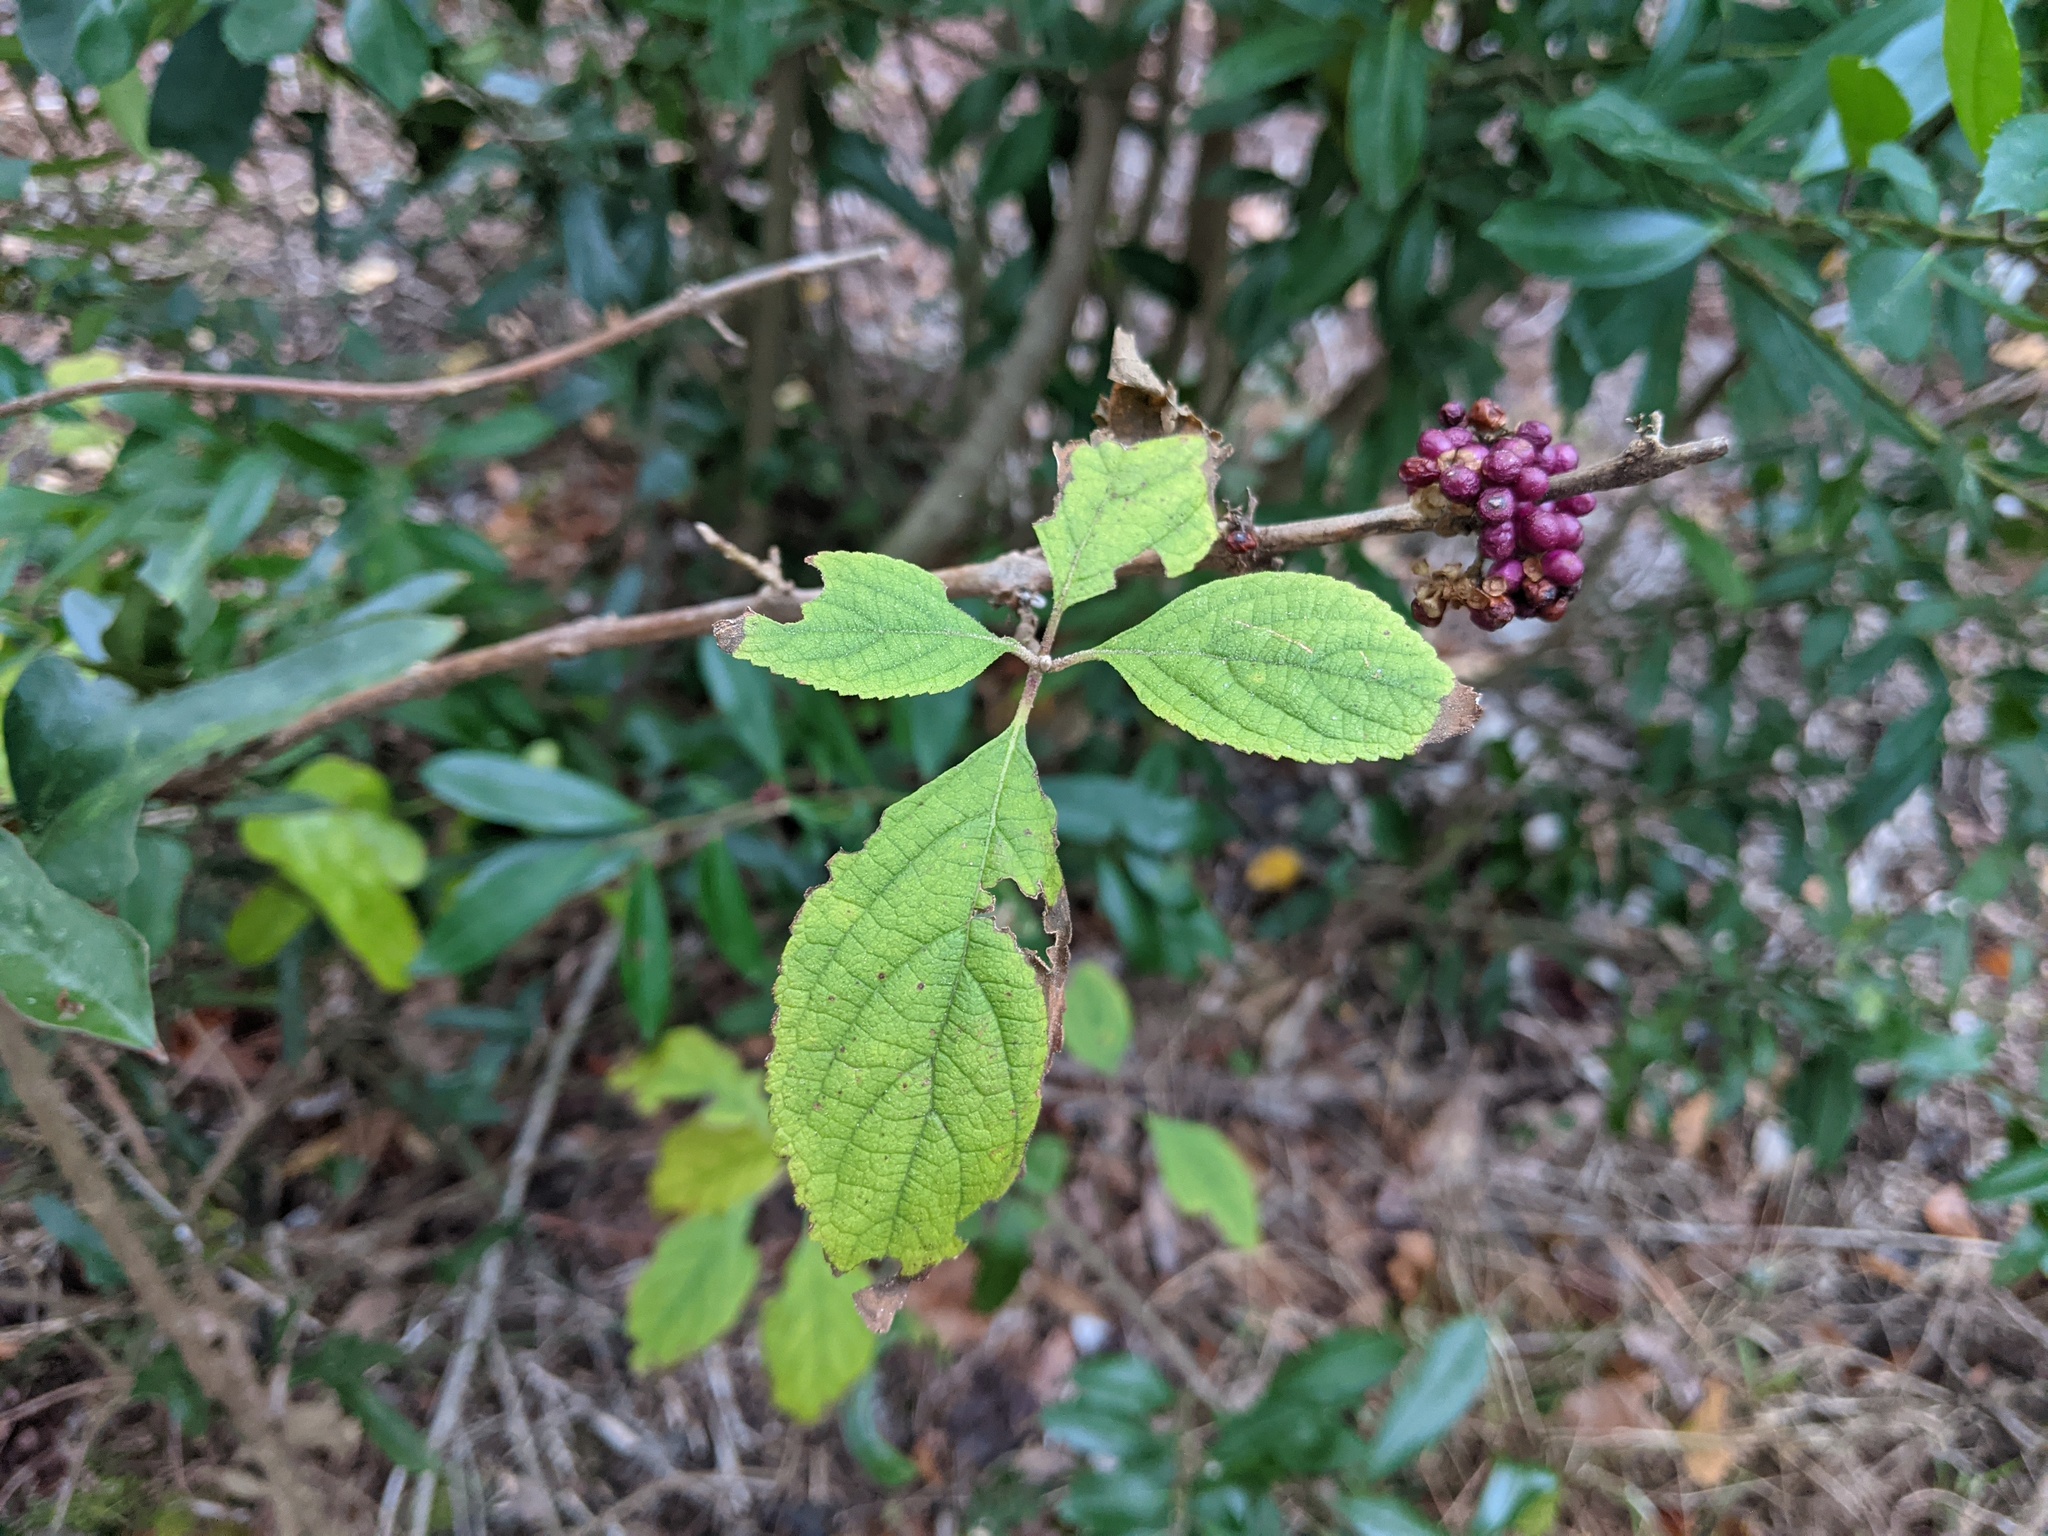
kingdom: Plantae
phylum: Tracheophyta
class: Magnoliopsida
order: Lamiales
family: Lamiaceae
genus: Callicarpa
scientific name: Callicarpa americana
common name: American beautyberry
